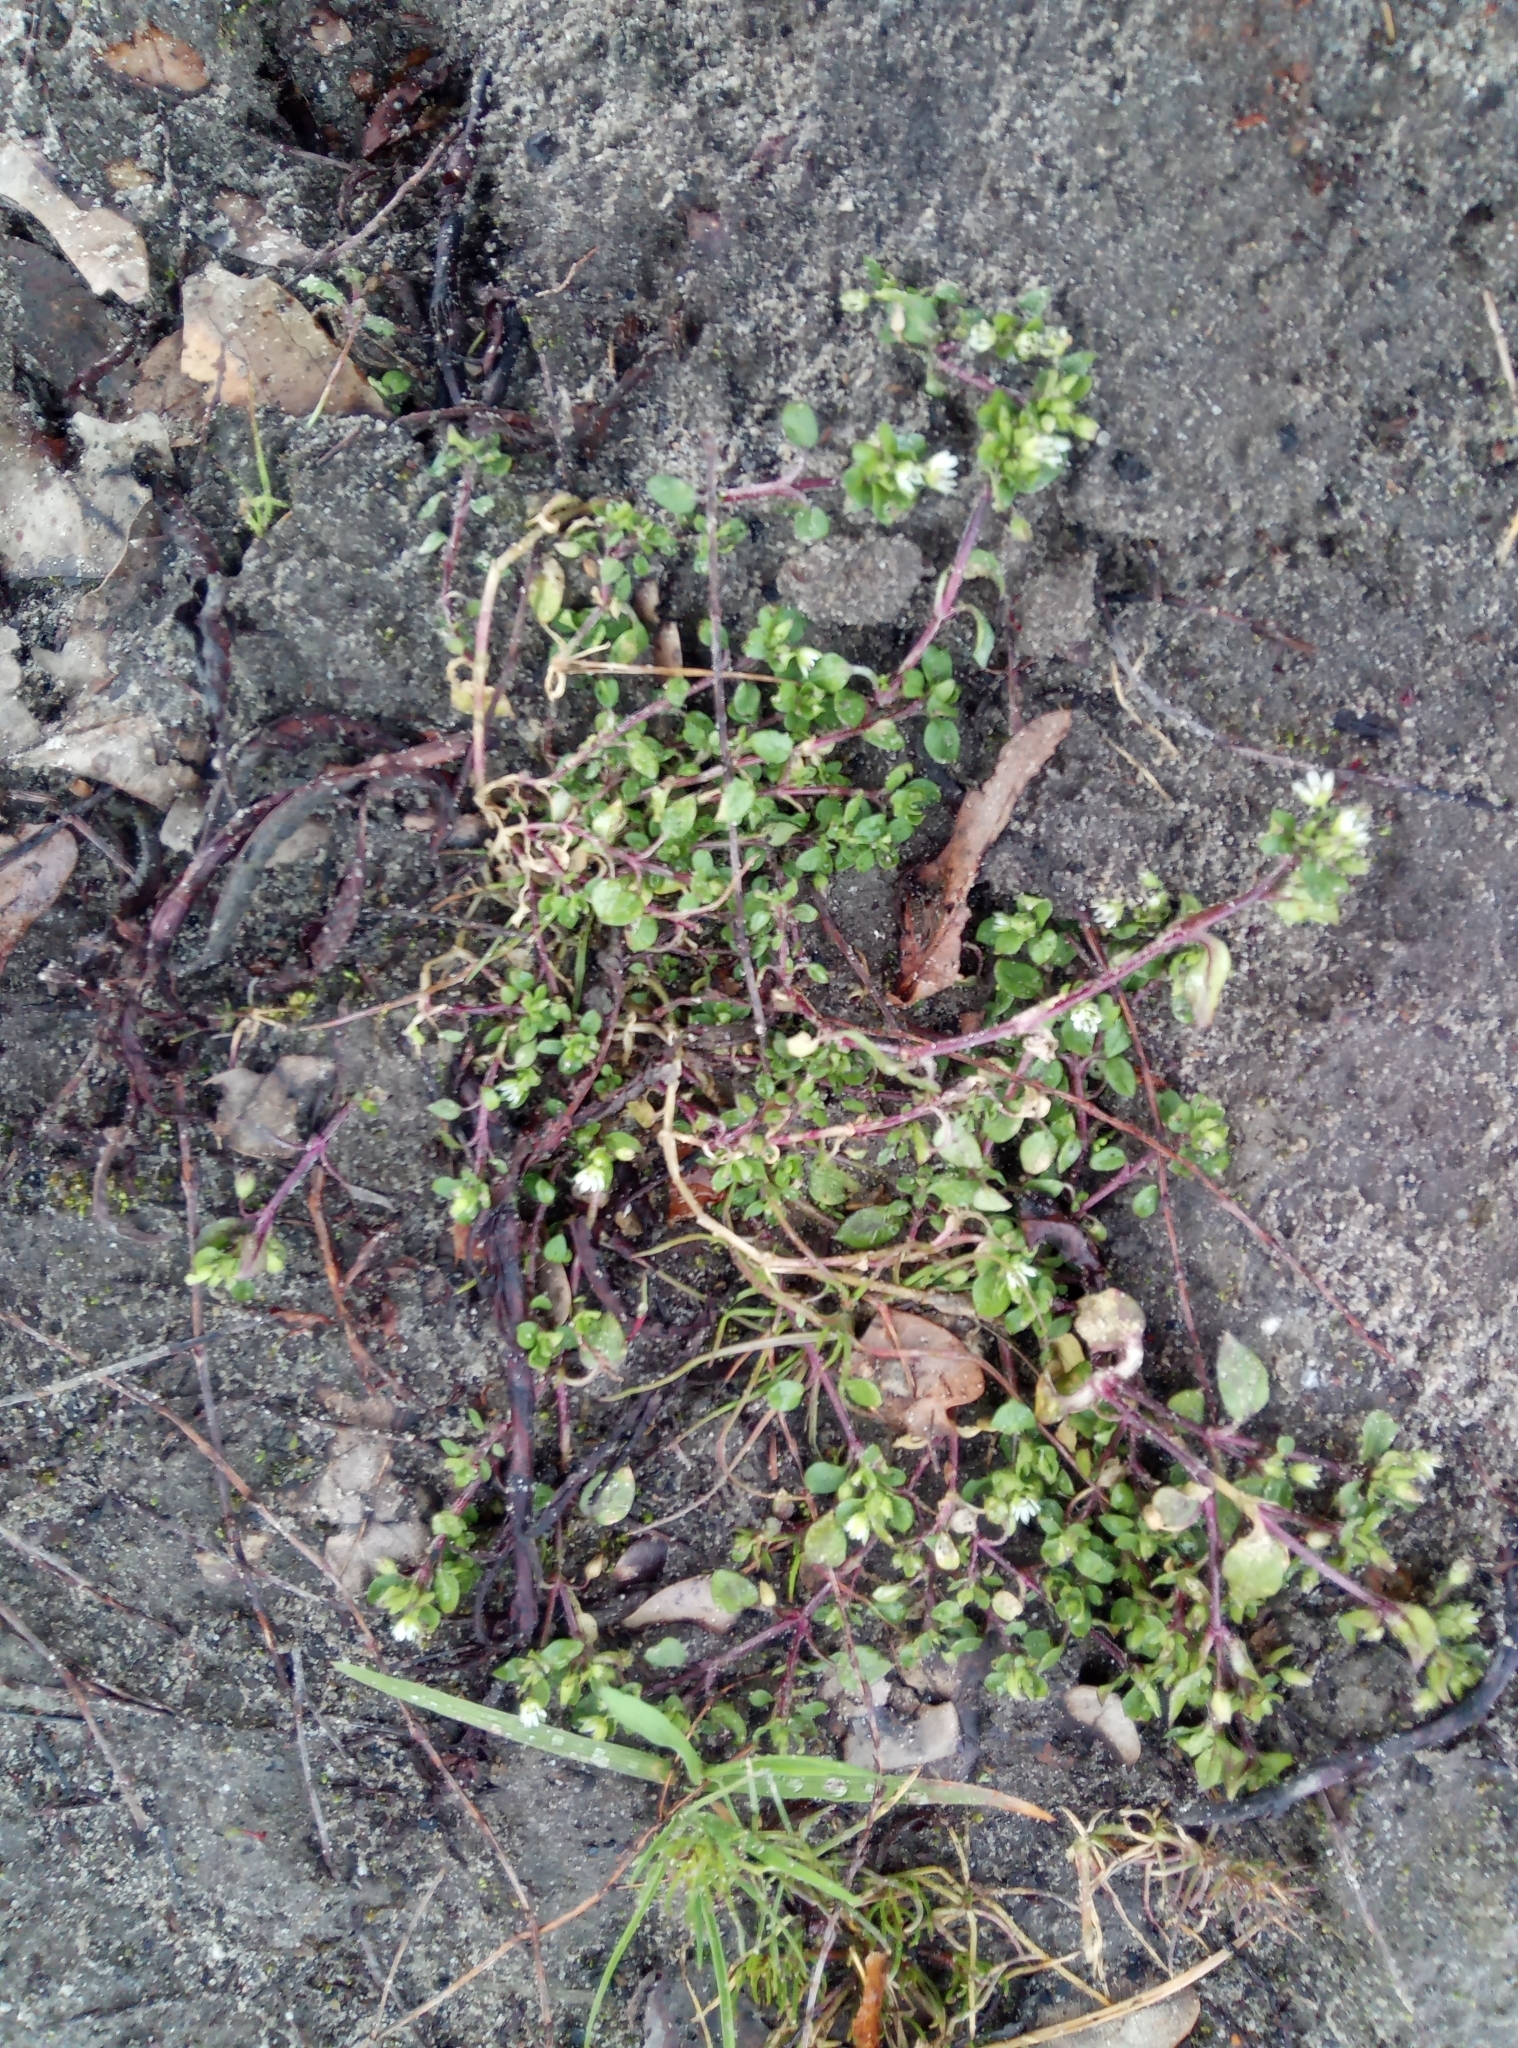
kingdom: Plantae
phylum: Tracheophyta
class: Magnoliopsida
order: Caryophyllales
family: Caryophyllaceae
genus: Stellaria
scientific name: Stellaria media
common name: Common chickweed
